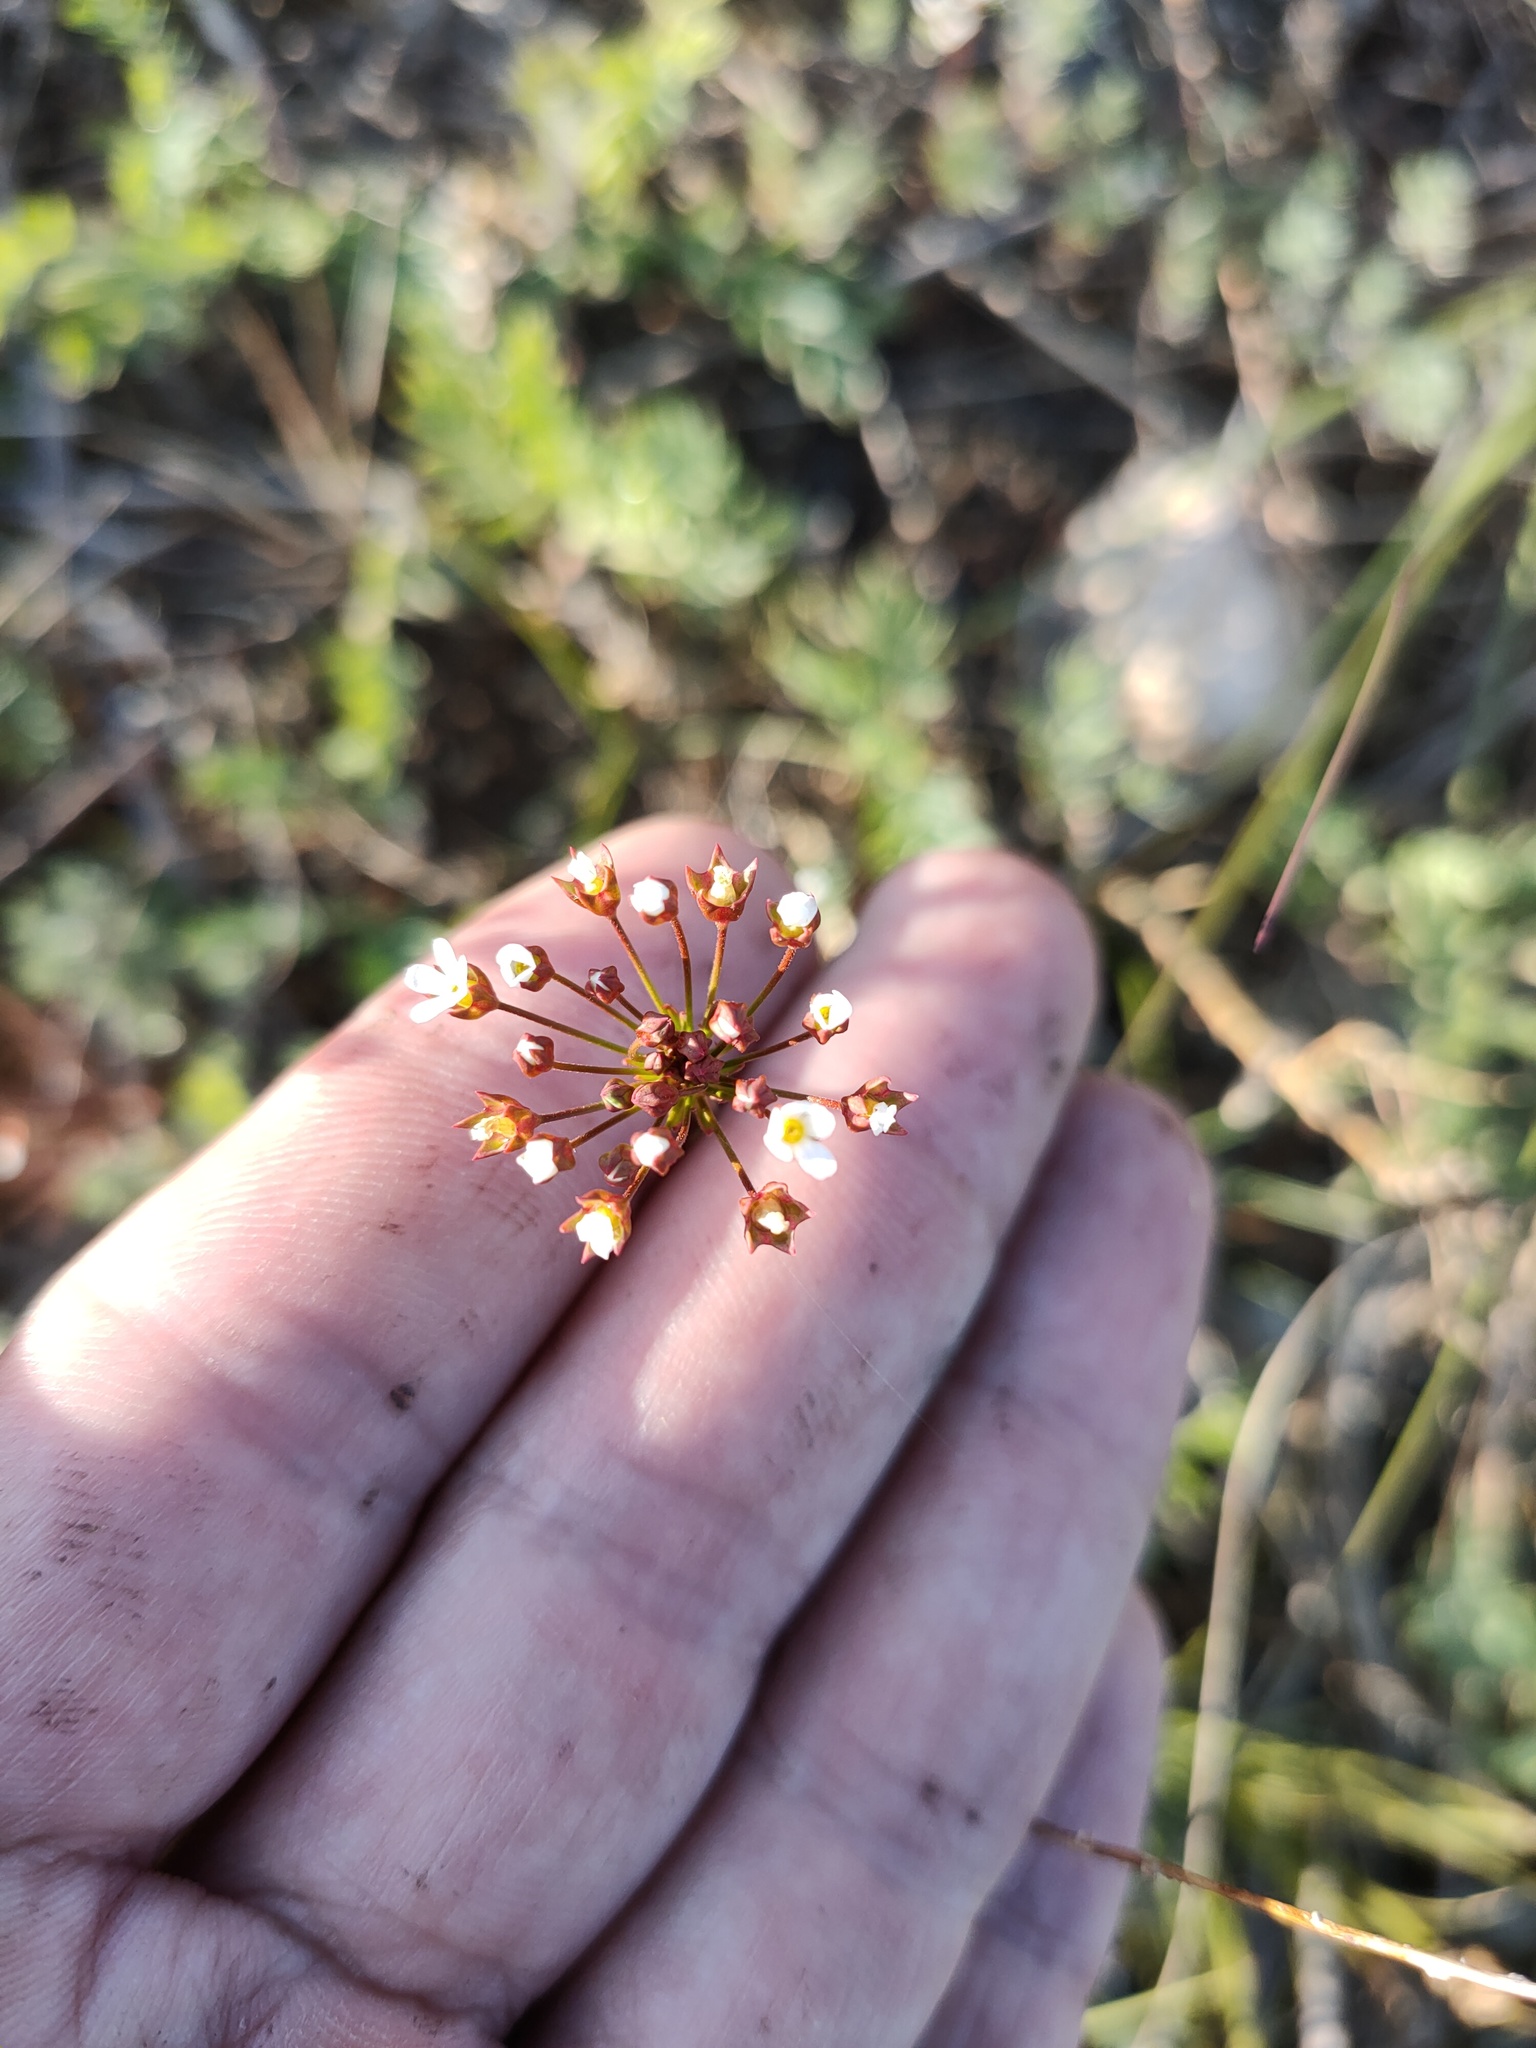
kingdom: Plantae
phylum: Tracheophyta
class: Magnoliopsida
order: Ericales
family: Primulaceae
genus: Androsace
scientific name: Androsace septentrionalis
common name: Hairy northern fairy-candelabra
